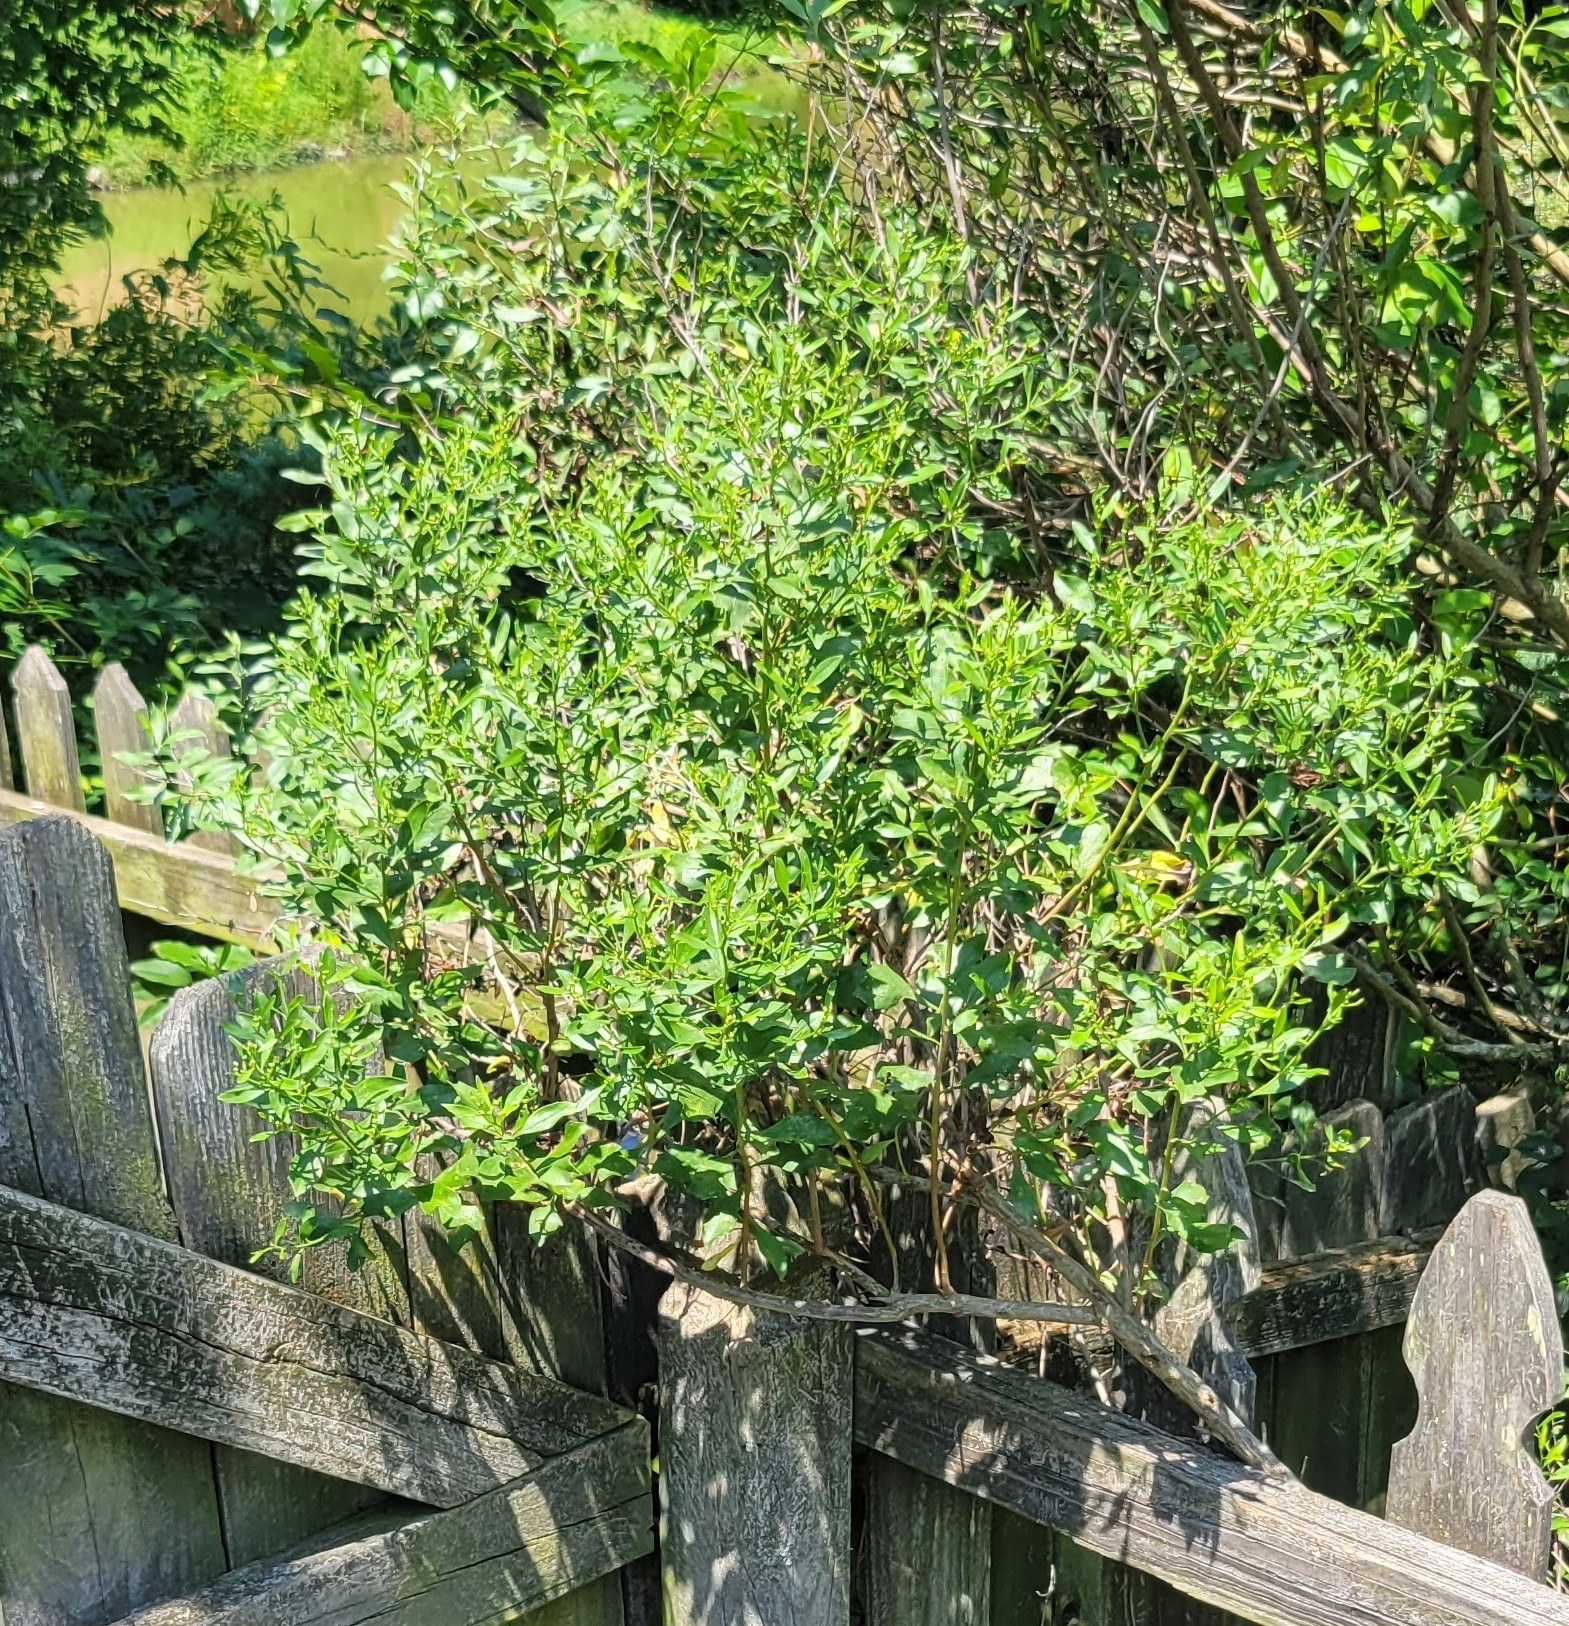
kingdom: Plantae
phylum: Tracheophyta
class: Magnoliopsida
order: Asterales
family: Asteraceae
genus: Baccharis
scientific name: Baccharis halimifolia
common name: Eastern baccharis
